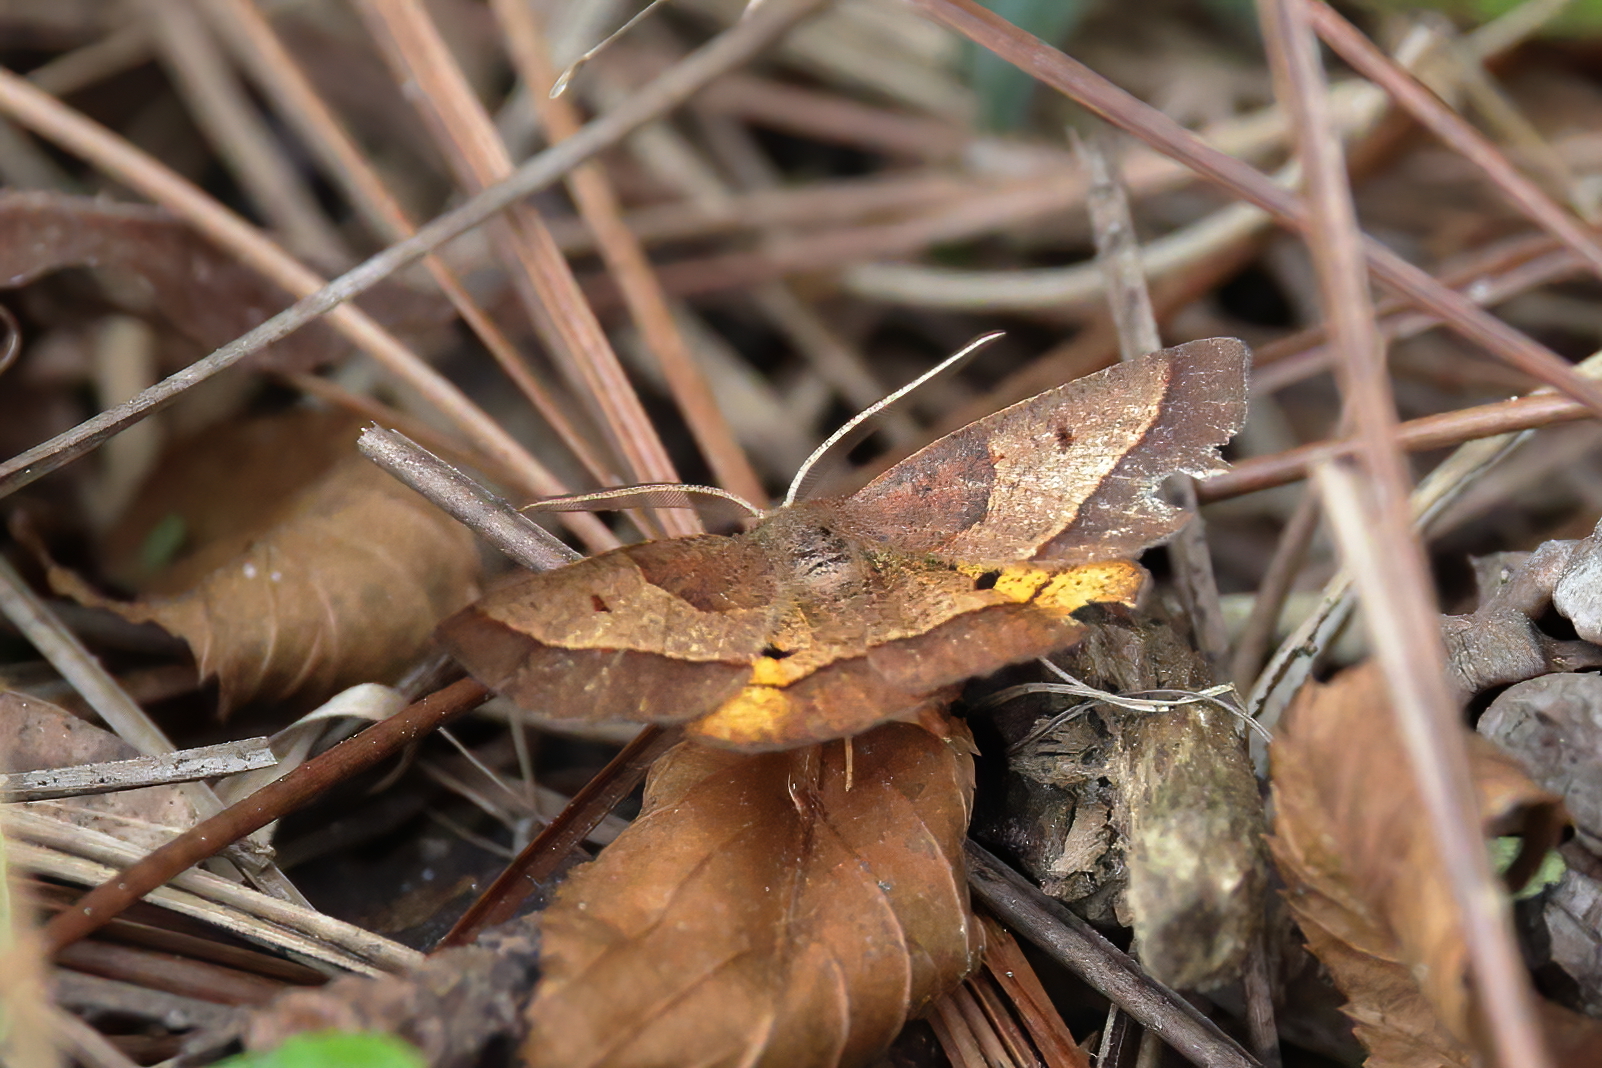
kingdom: Animalia
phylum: Arthropoda
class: Insecta
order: Lepidoptera
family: Geometridae
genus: Metarranthis
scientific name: Metarranthis obfirmaria
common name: Yellow-washed metarranthis
